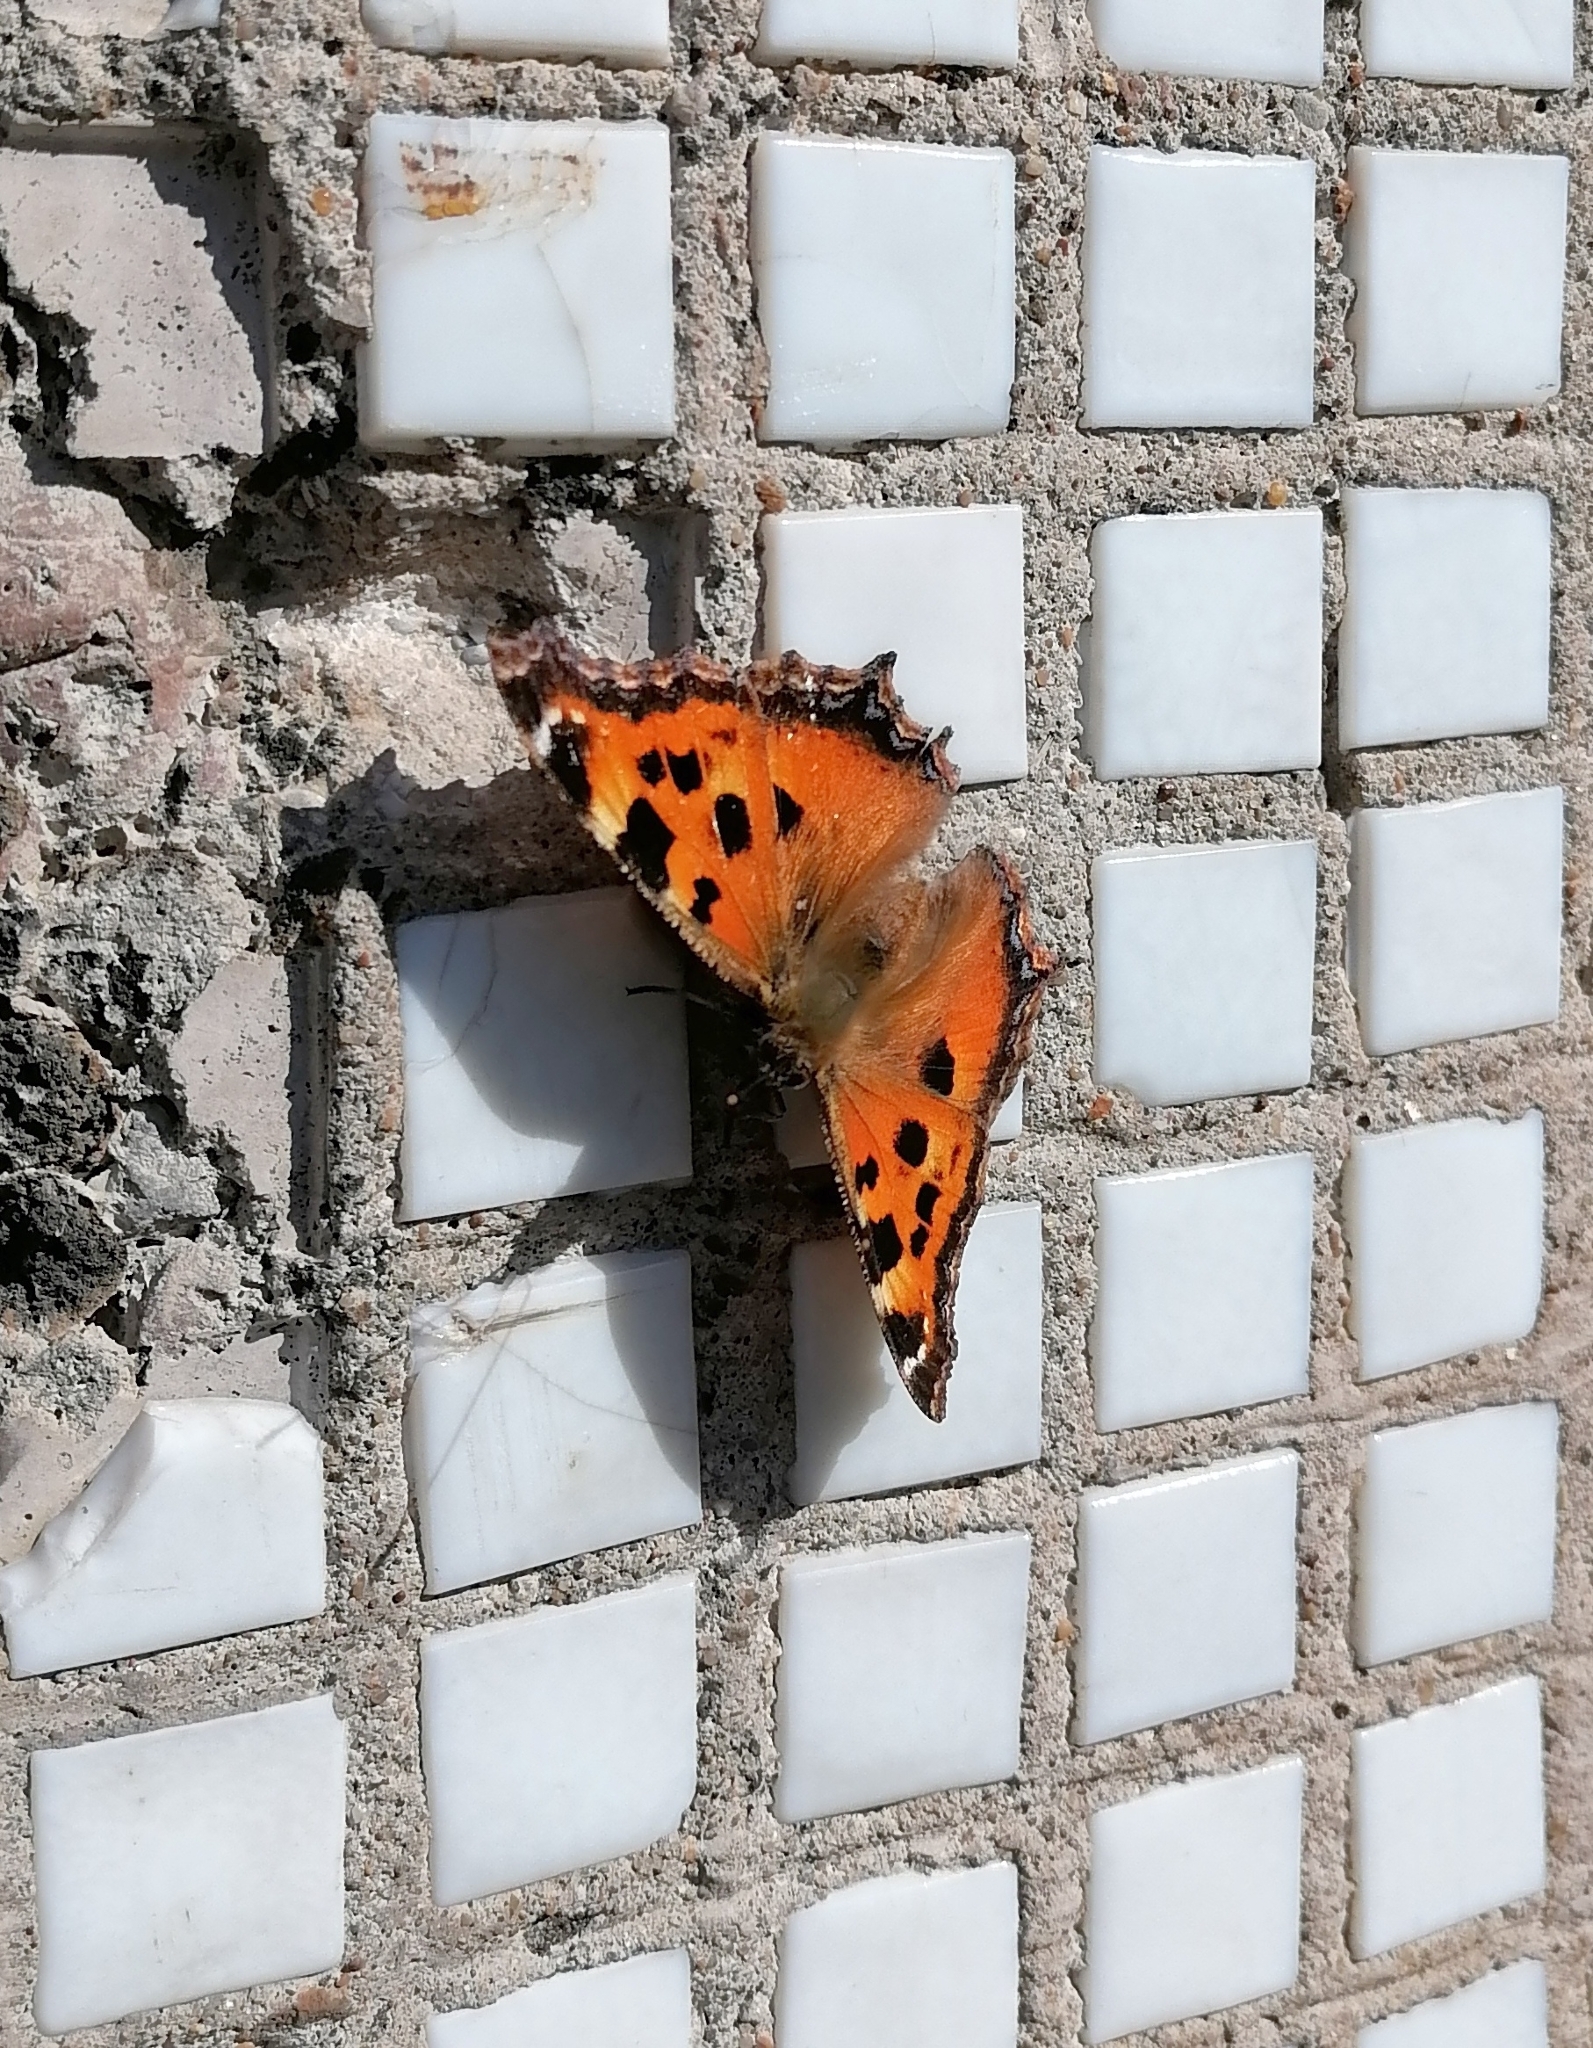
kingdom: Animalia
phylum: Arthropoda
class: Insecta
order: Lepidoptera
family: Nymphalidae
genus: Nymphalis
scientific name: Nymphalis xanthomelas
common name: Scarce tortoiseshell
